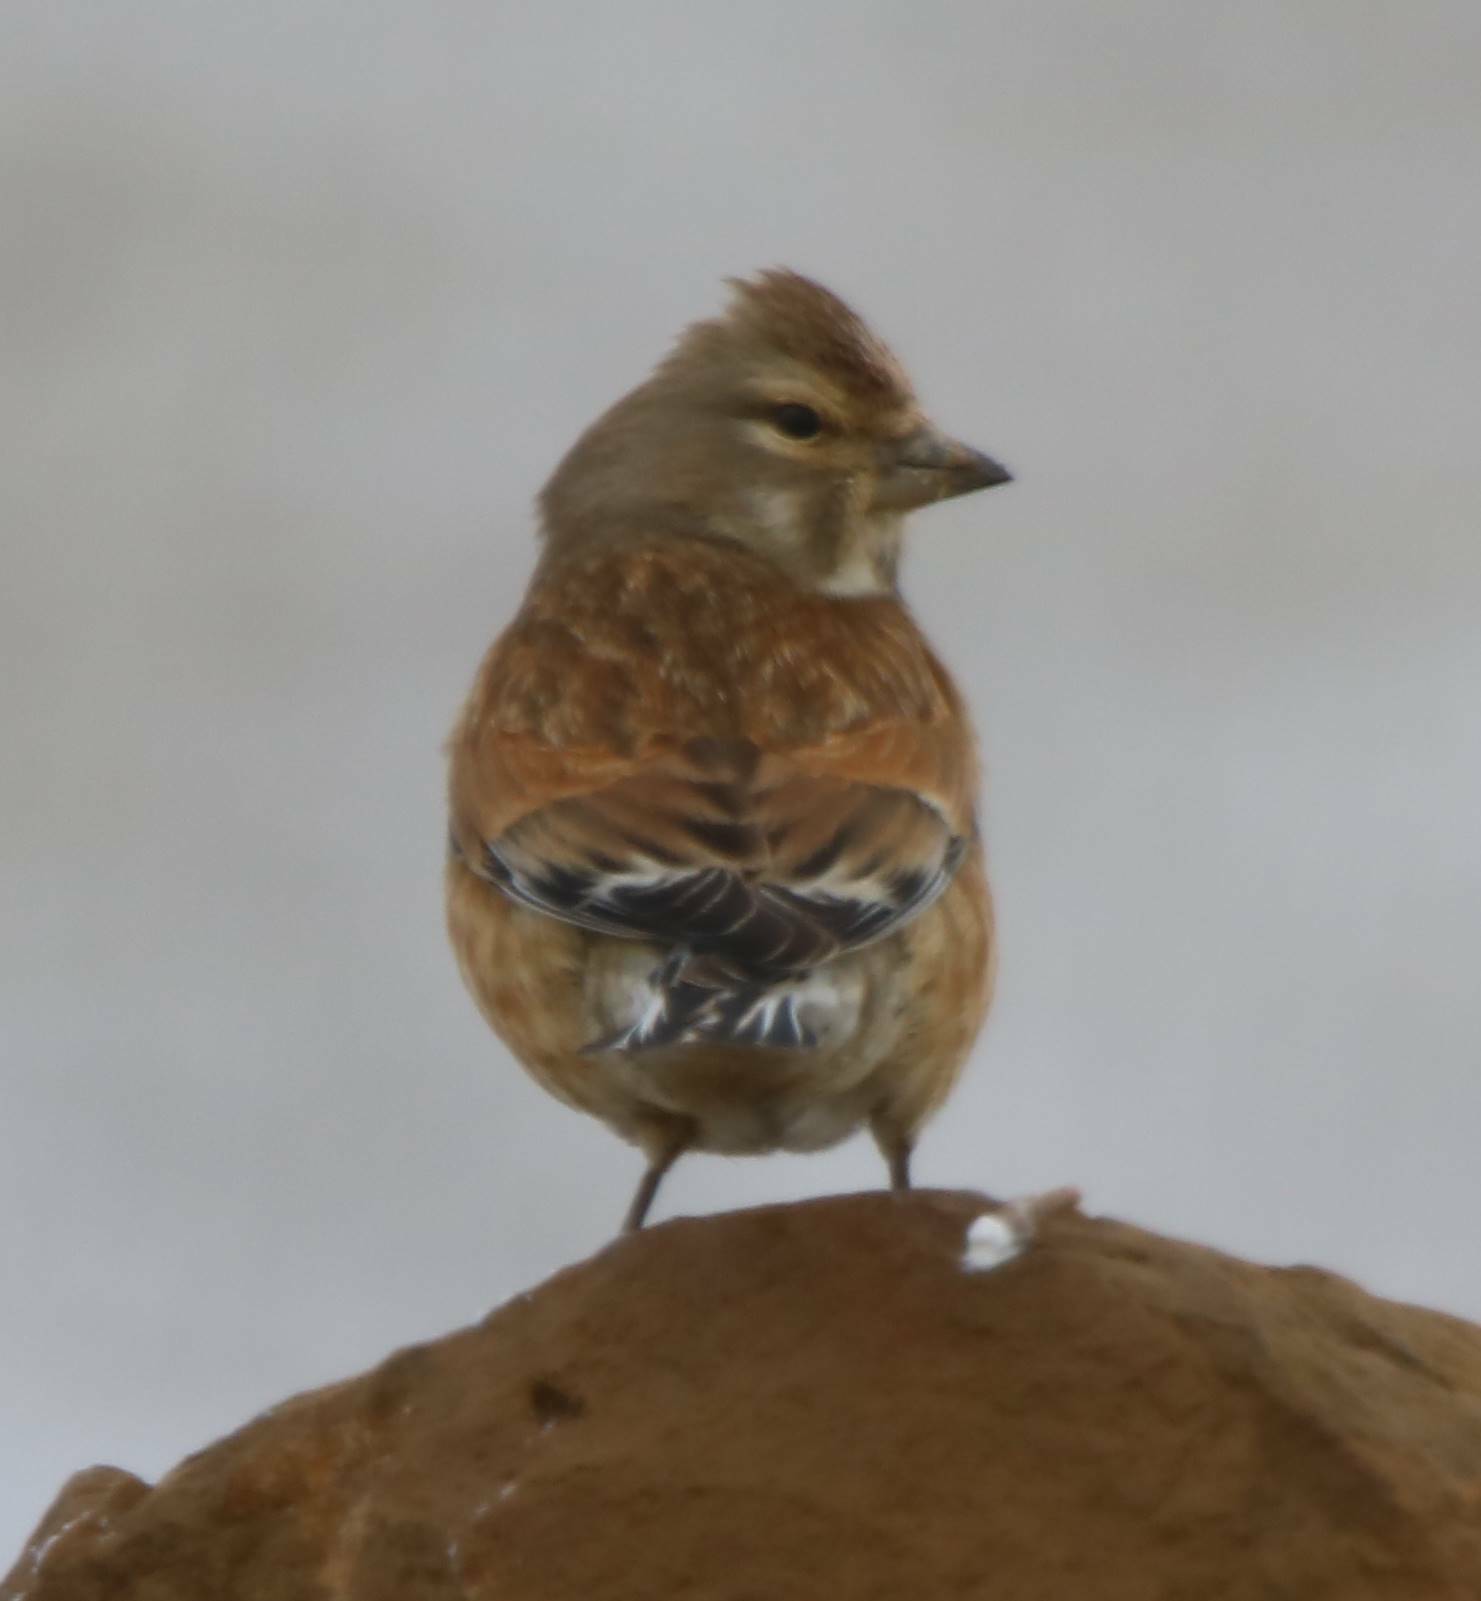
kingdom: Animalia
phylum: Chordata
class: Aves
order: Passeriformes
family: Fringillidae
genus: Linaria
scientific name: Linaria cannabina
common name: Common linnet
